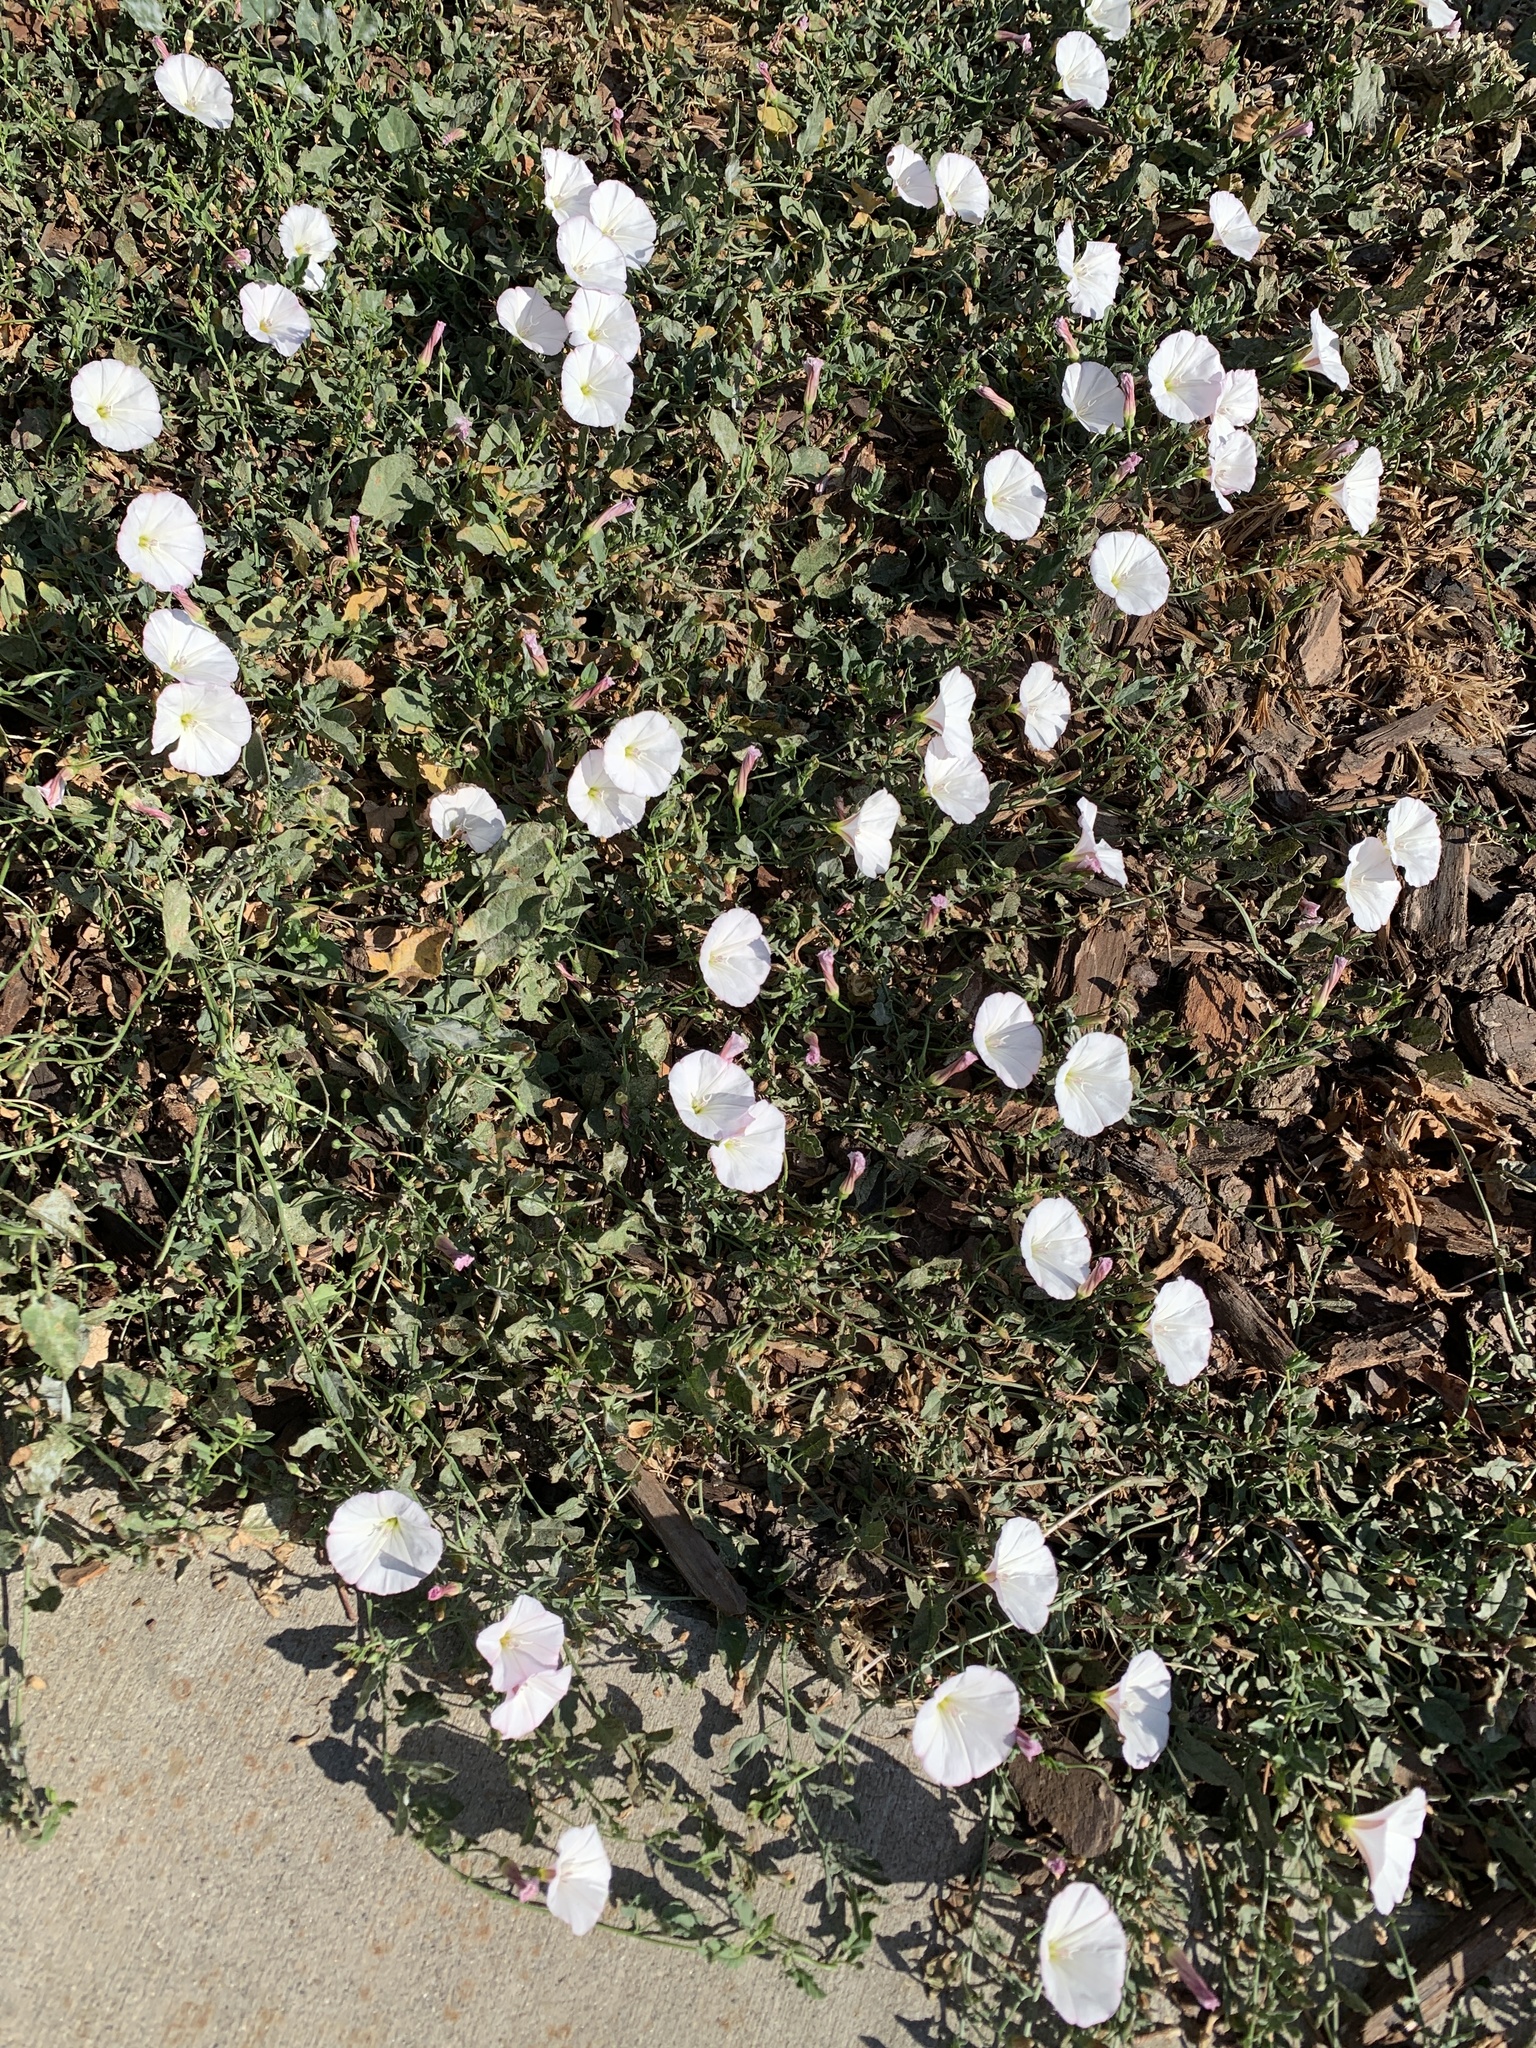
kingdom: Plantae
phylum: Tracheophyta
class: Magnoliopsida
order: Solanales
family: Convolvulaceae
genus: Convolvulus
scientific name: Convolvulus arvensis
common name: Field bindweed
